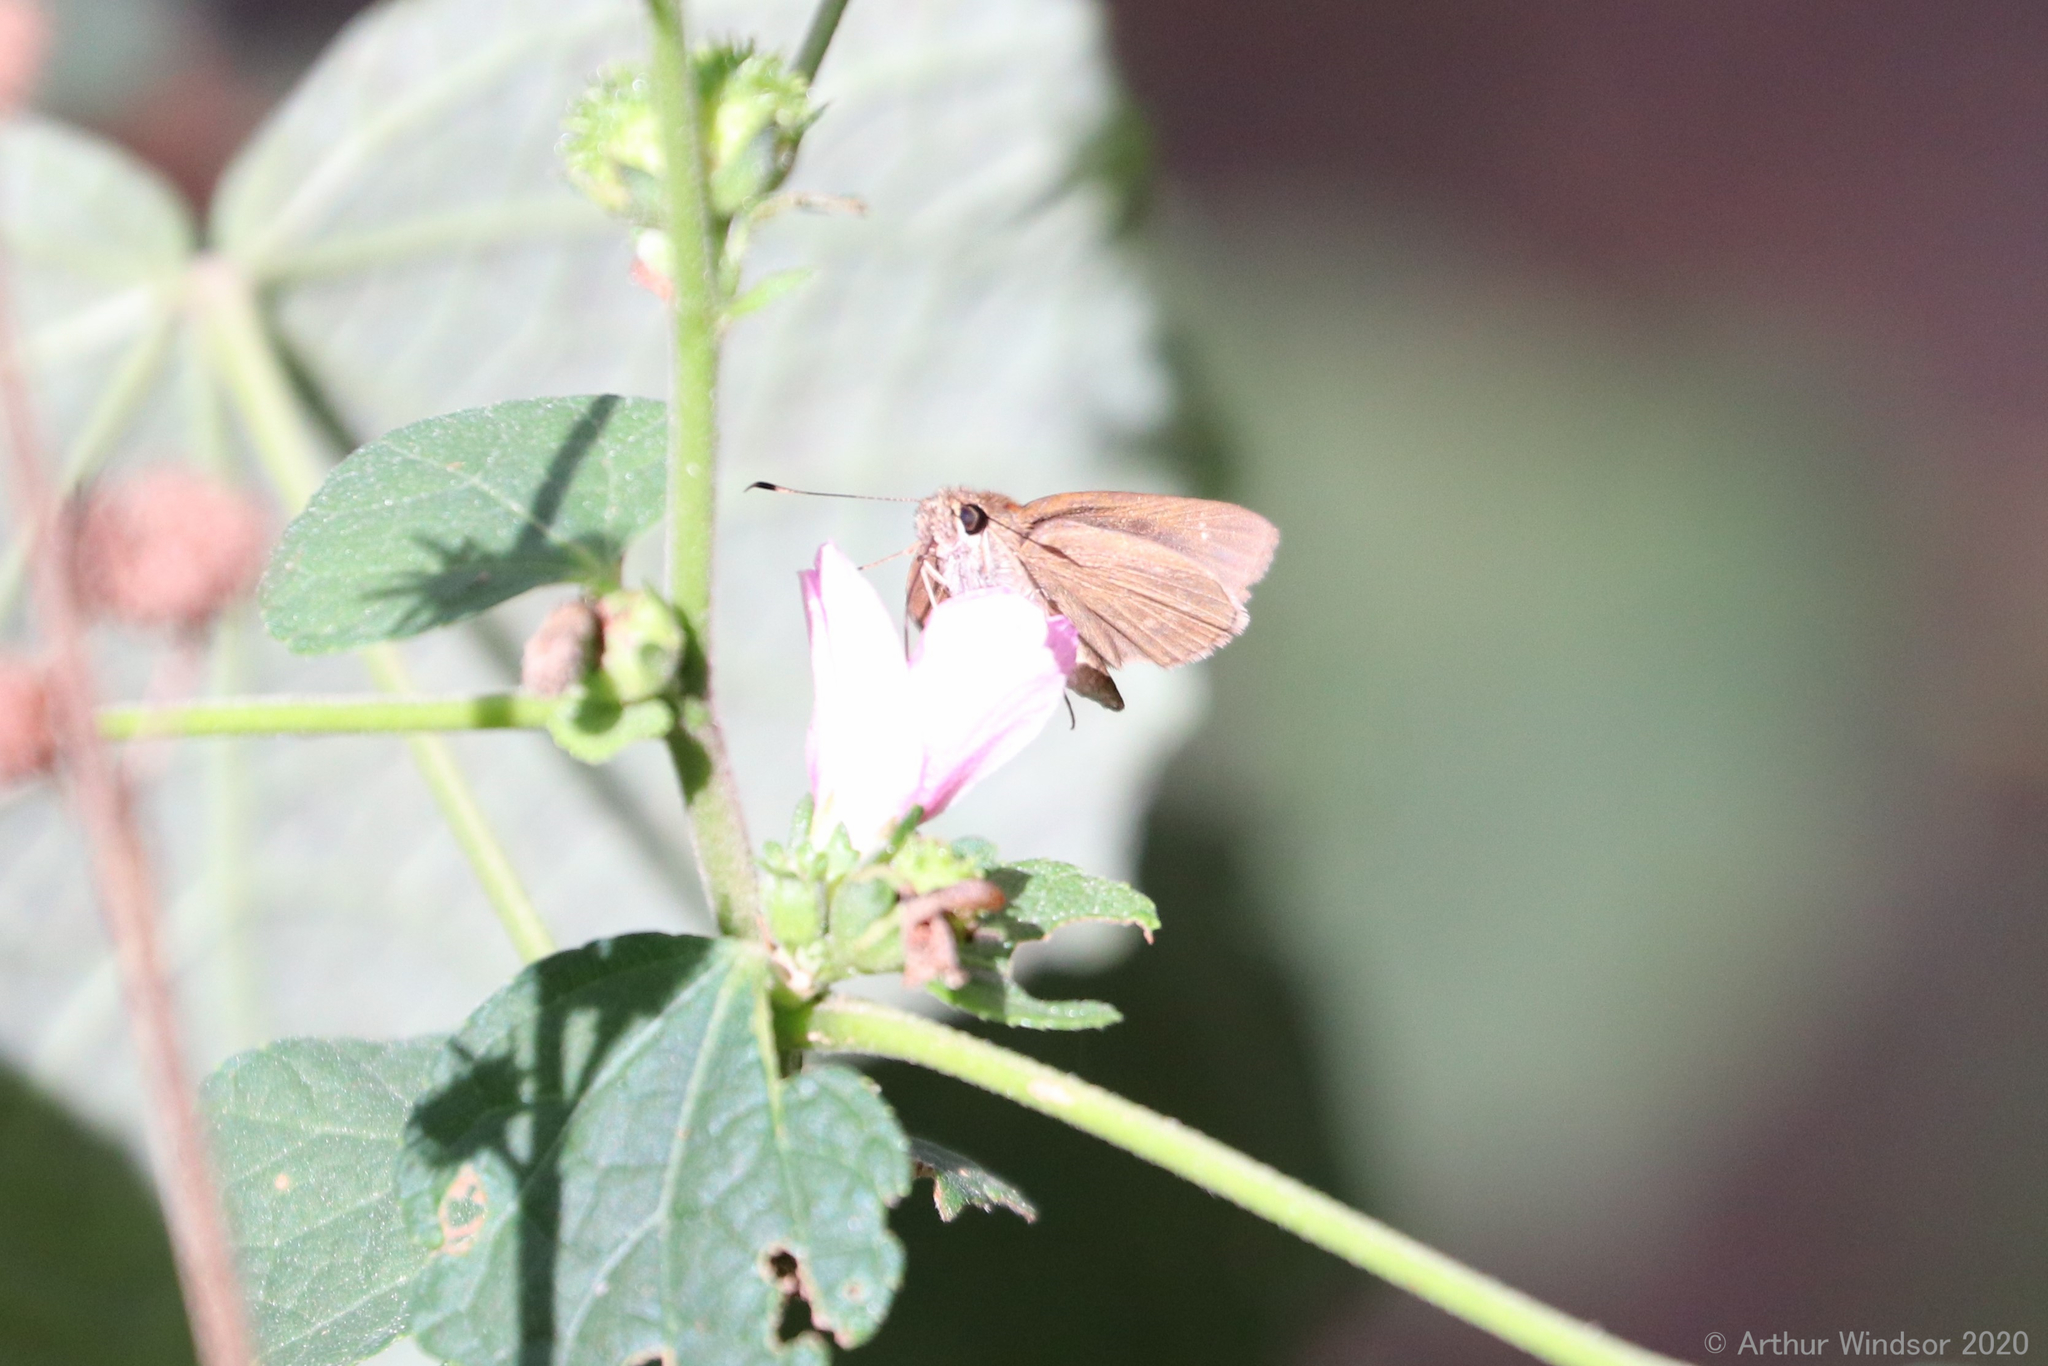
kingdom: Animalia
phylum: Arthropoda
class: Insecta
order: Lepidoptera
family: Hesperiidae
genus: Cymaenes
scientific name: Cymaenes tripunctus
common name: Dingy dotted skipper
